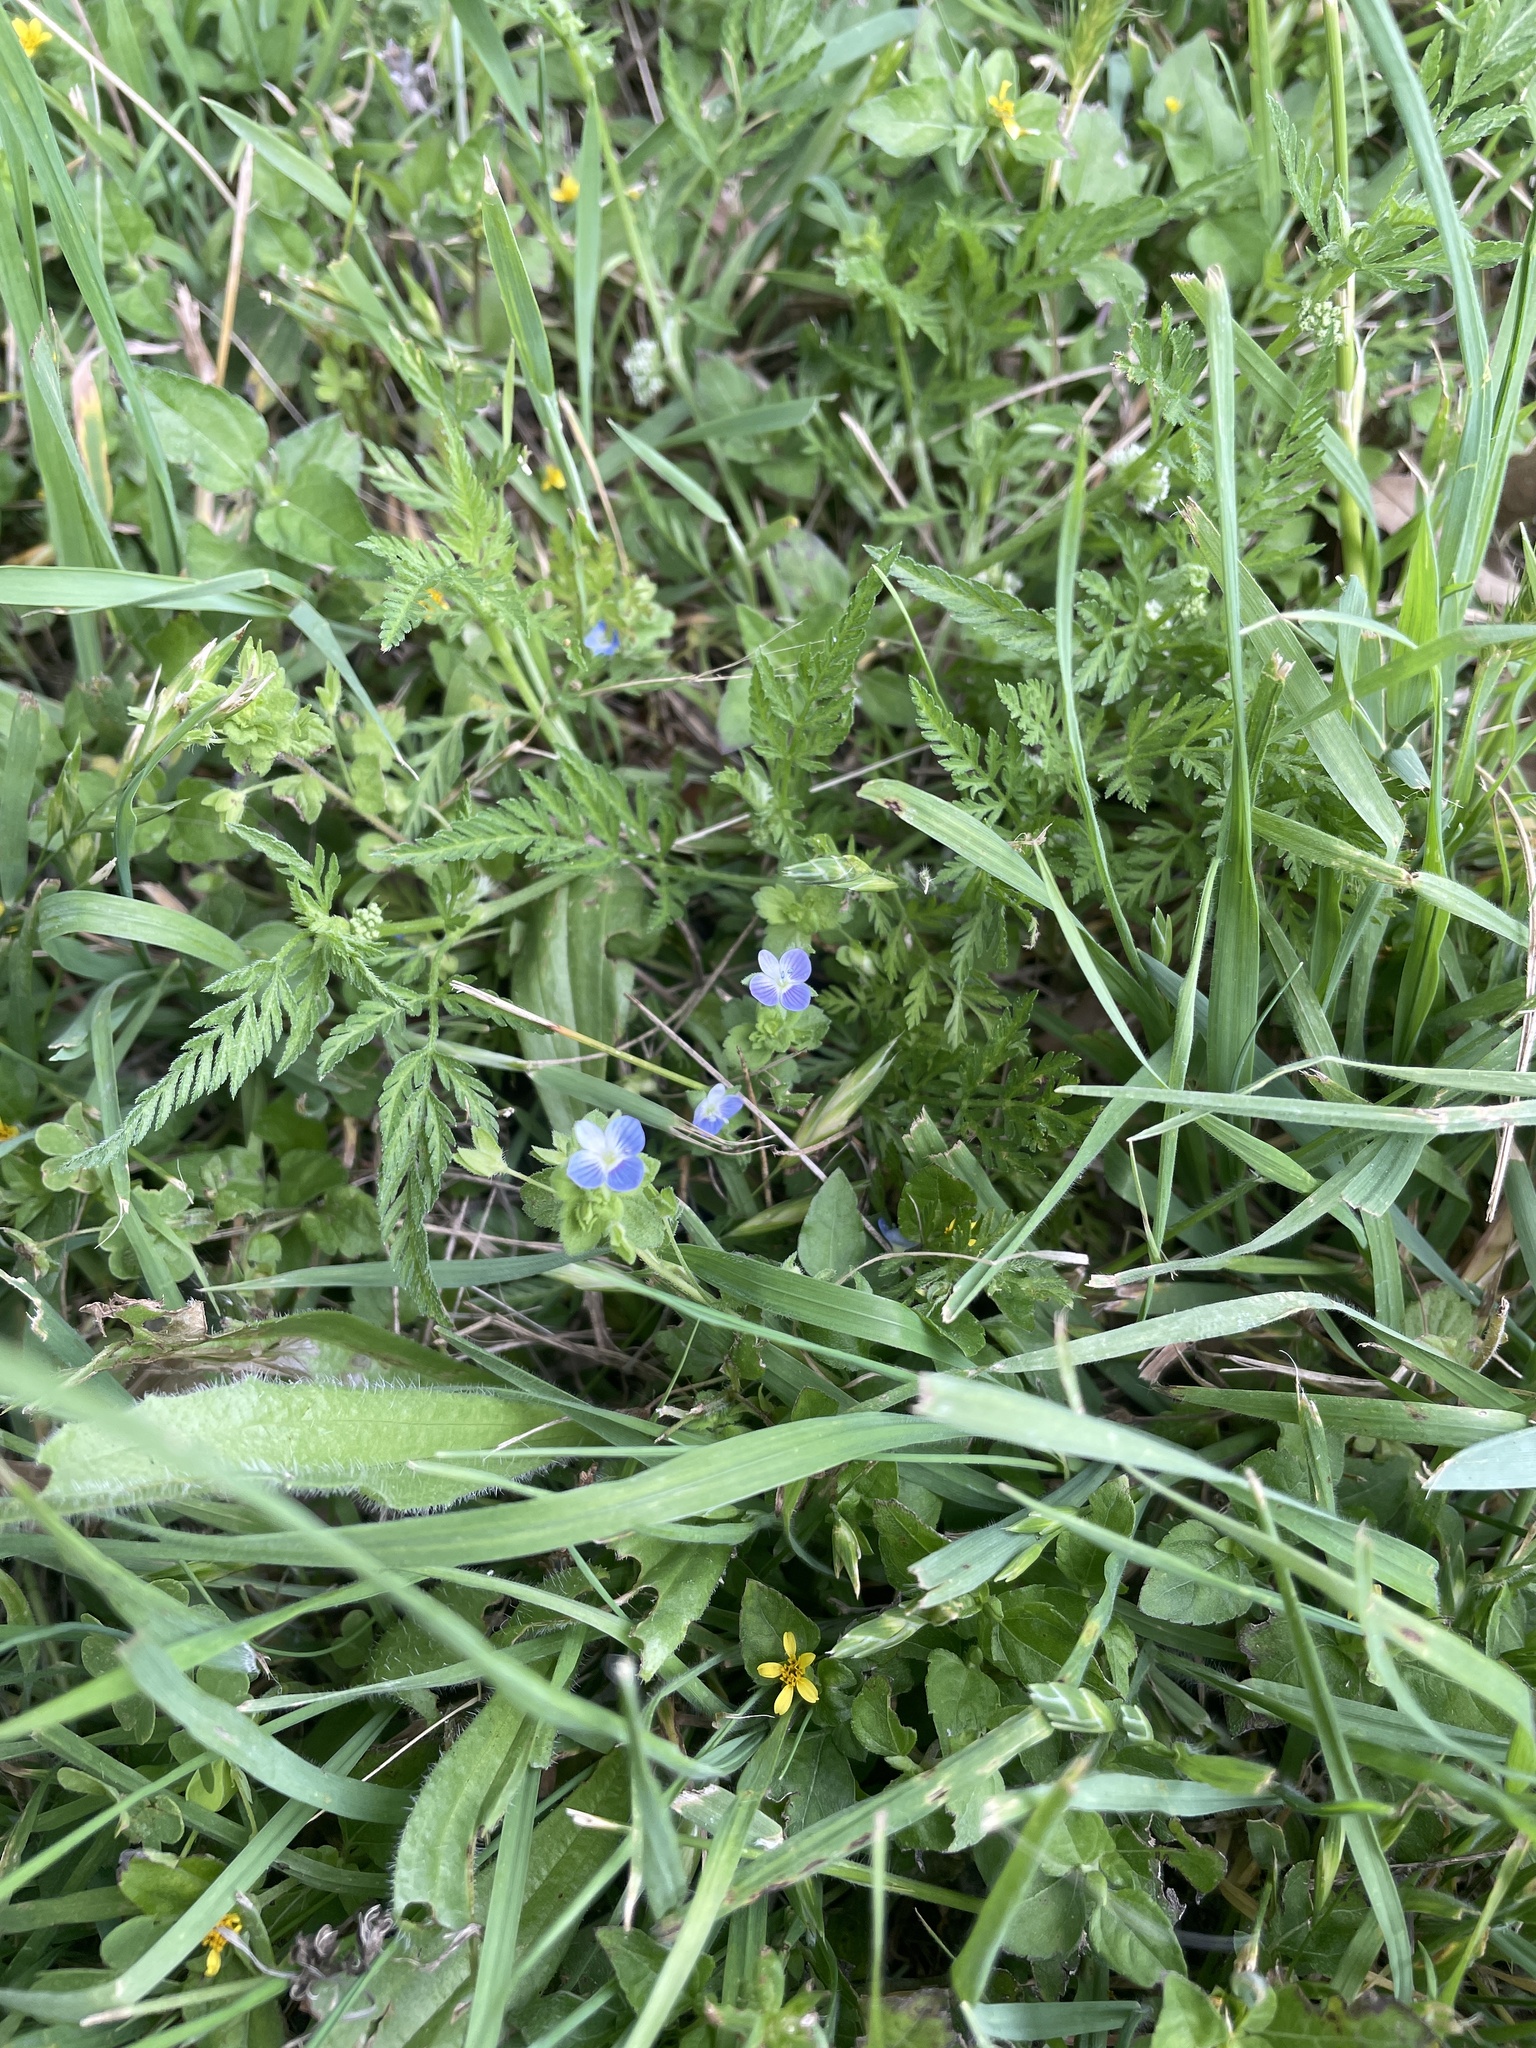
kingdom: Plantae
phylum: Tracheophyta
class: Magnoliopsida
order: Lamiales
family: Plantaginaceae
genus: Veronica
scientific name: Veronica persica
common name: Common field-speedwell
